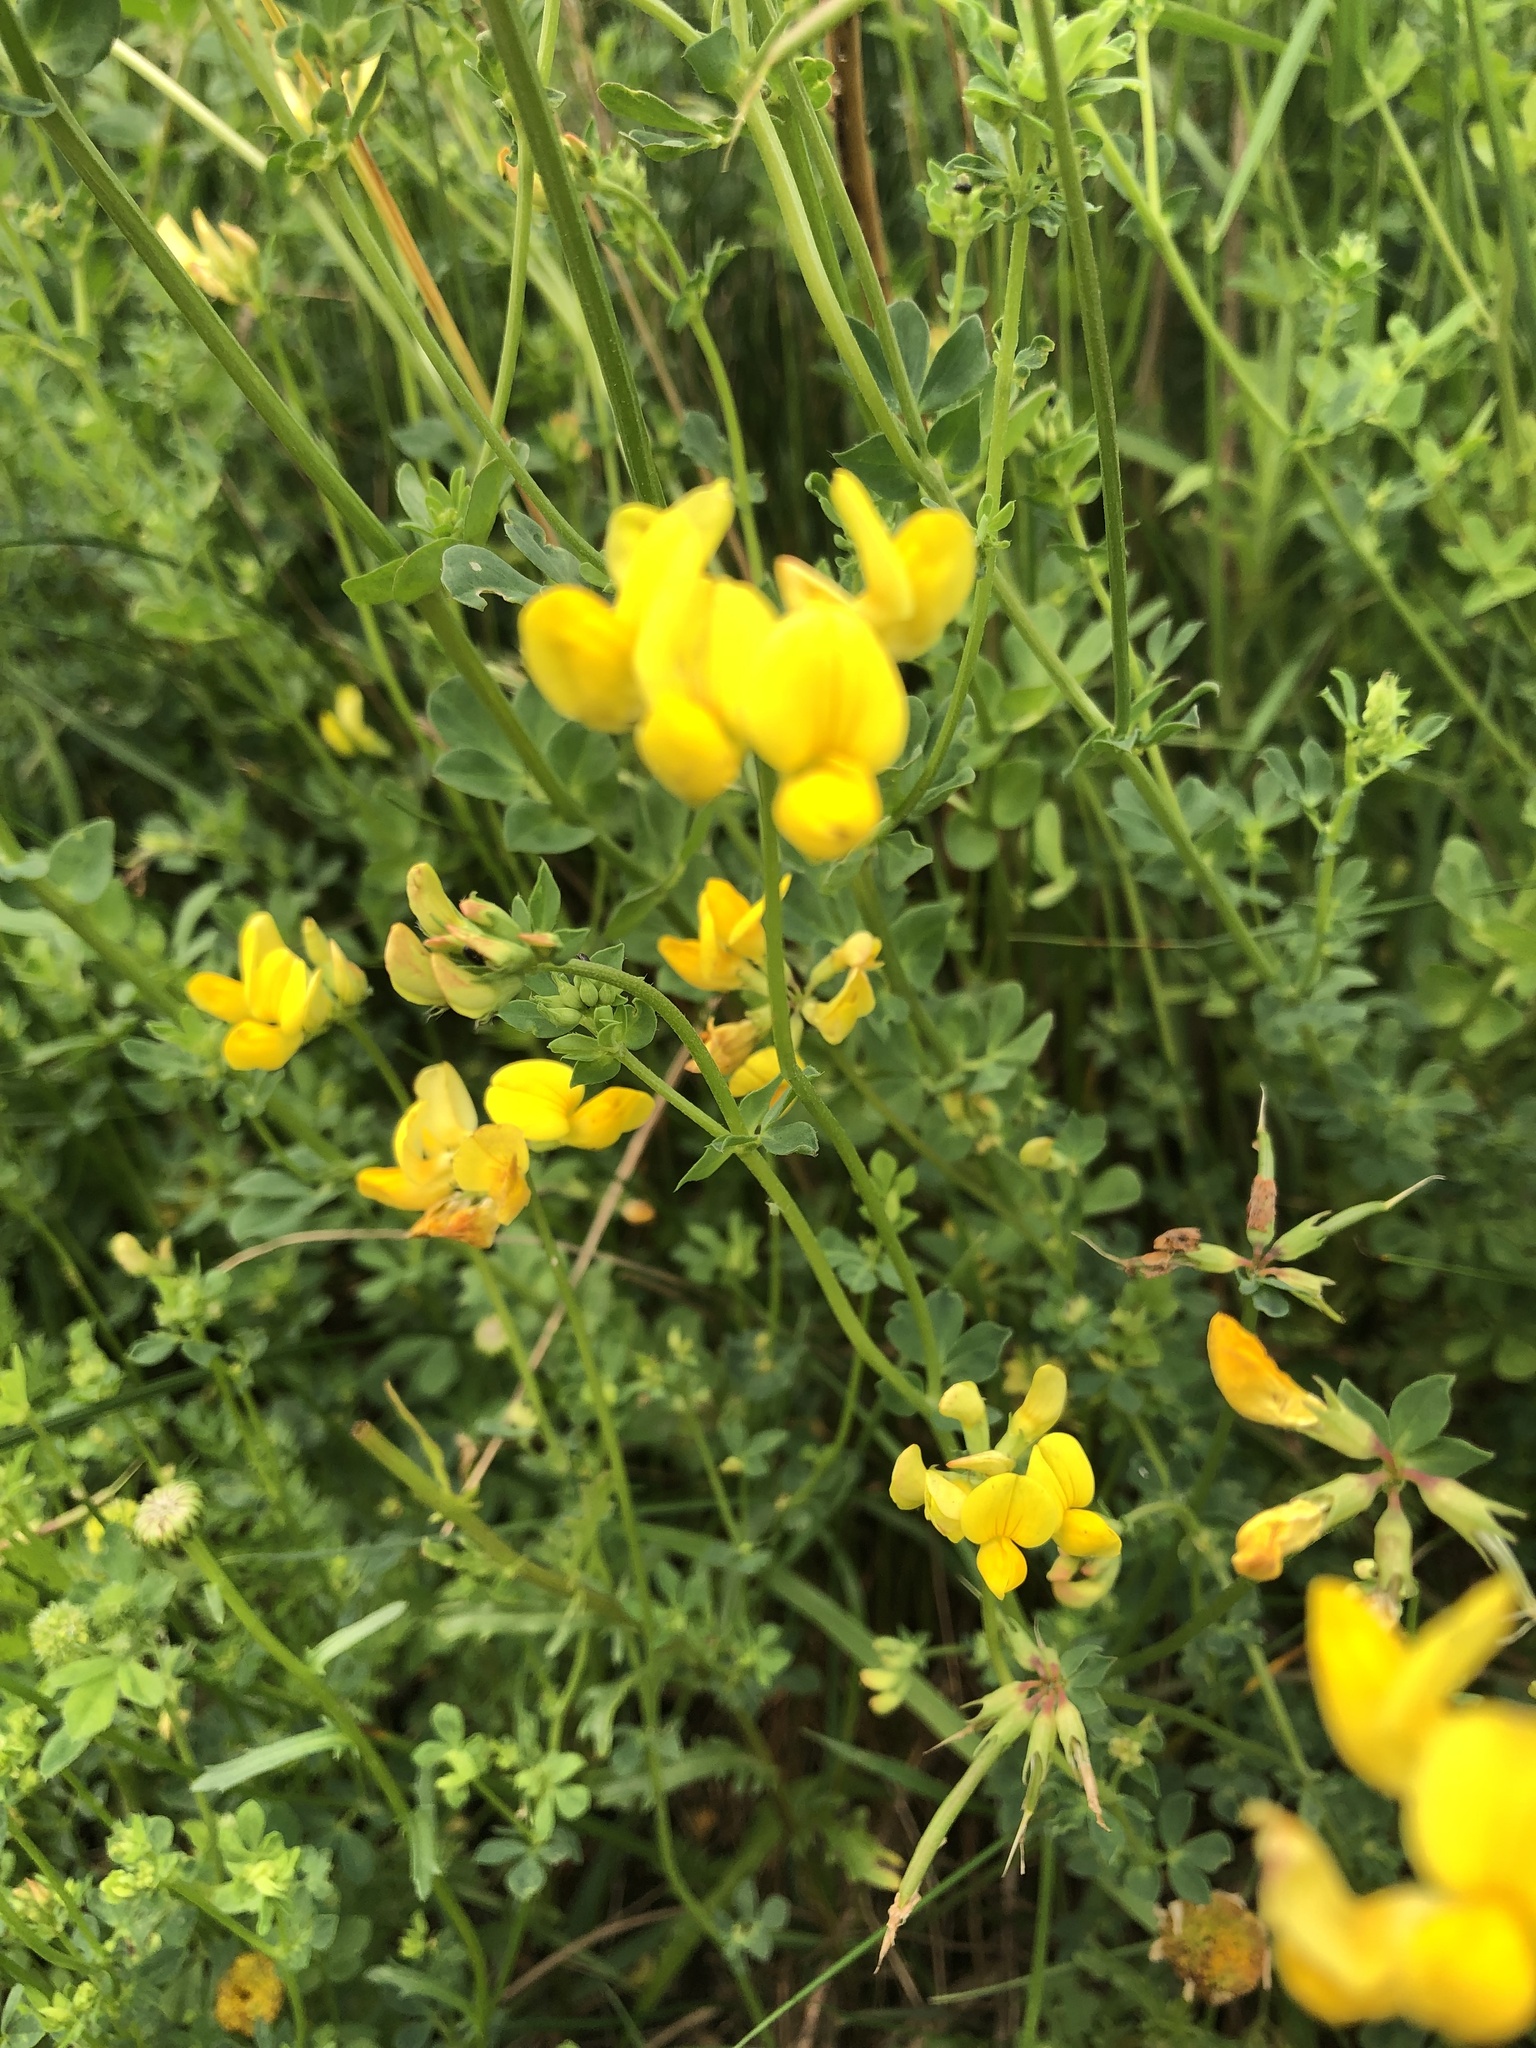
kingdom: Plantae
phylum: Tracheophyta
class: Magnoliopsida
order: Fabales
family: Fabaceae
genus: Lotus
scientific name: Lotus corniculatus
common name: Common bird's-foot-trefoil
